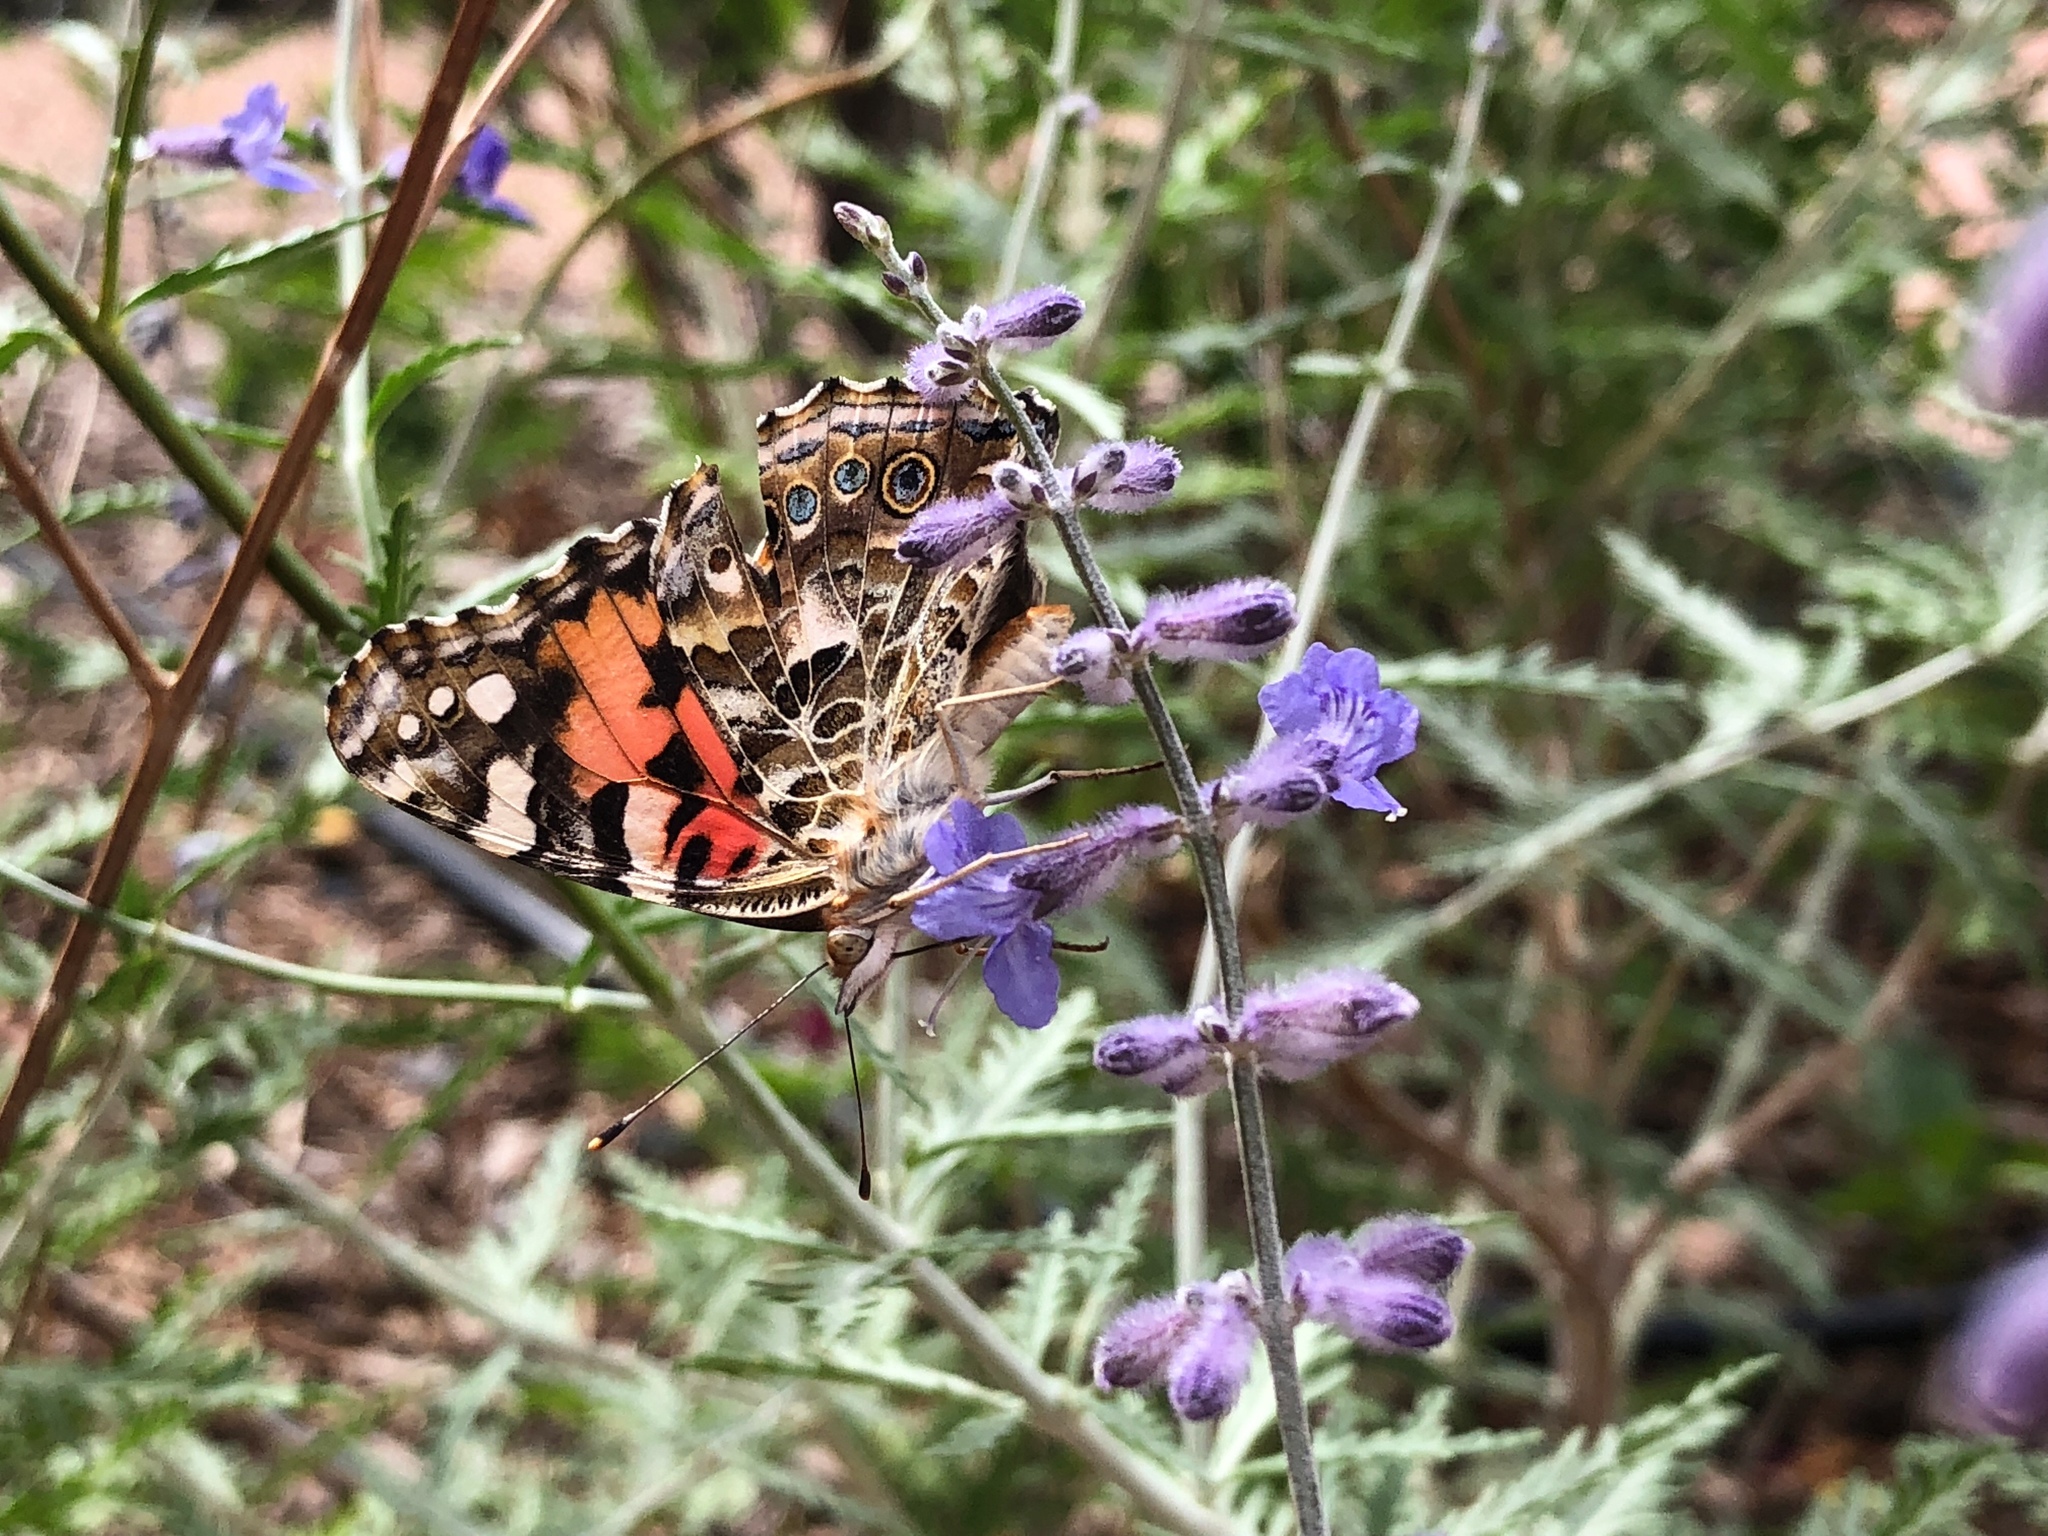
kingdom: Animalia
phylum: Arthropoda
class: Insecta
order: Lepidoptera
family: Nymphalidae
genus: Vanessa
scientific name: Vanessa cardui
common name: Painted lady
